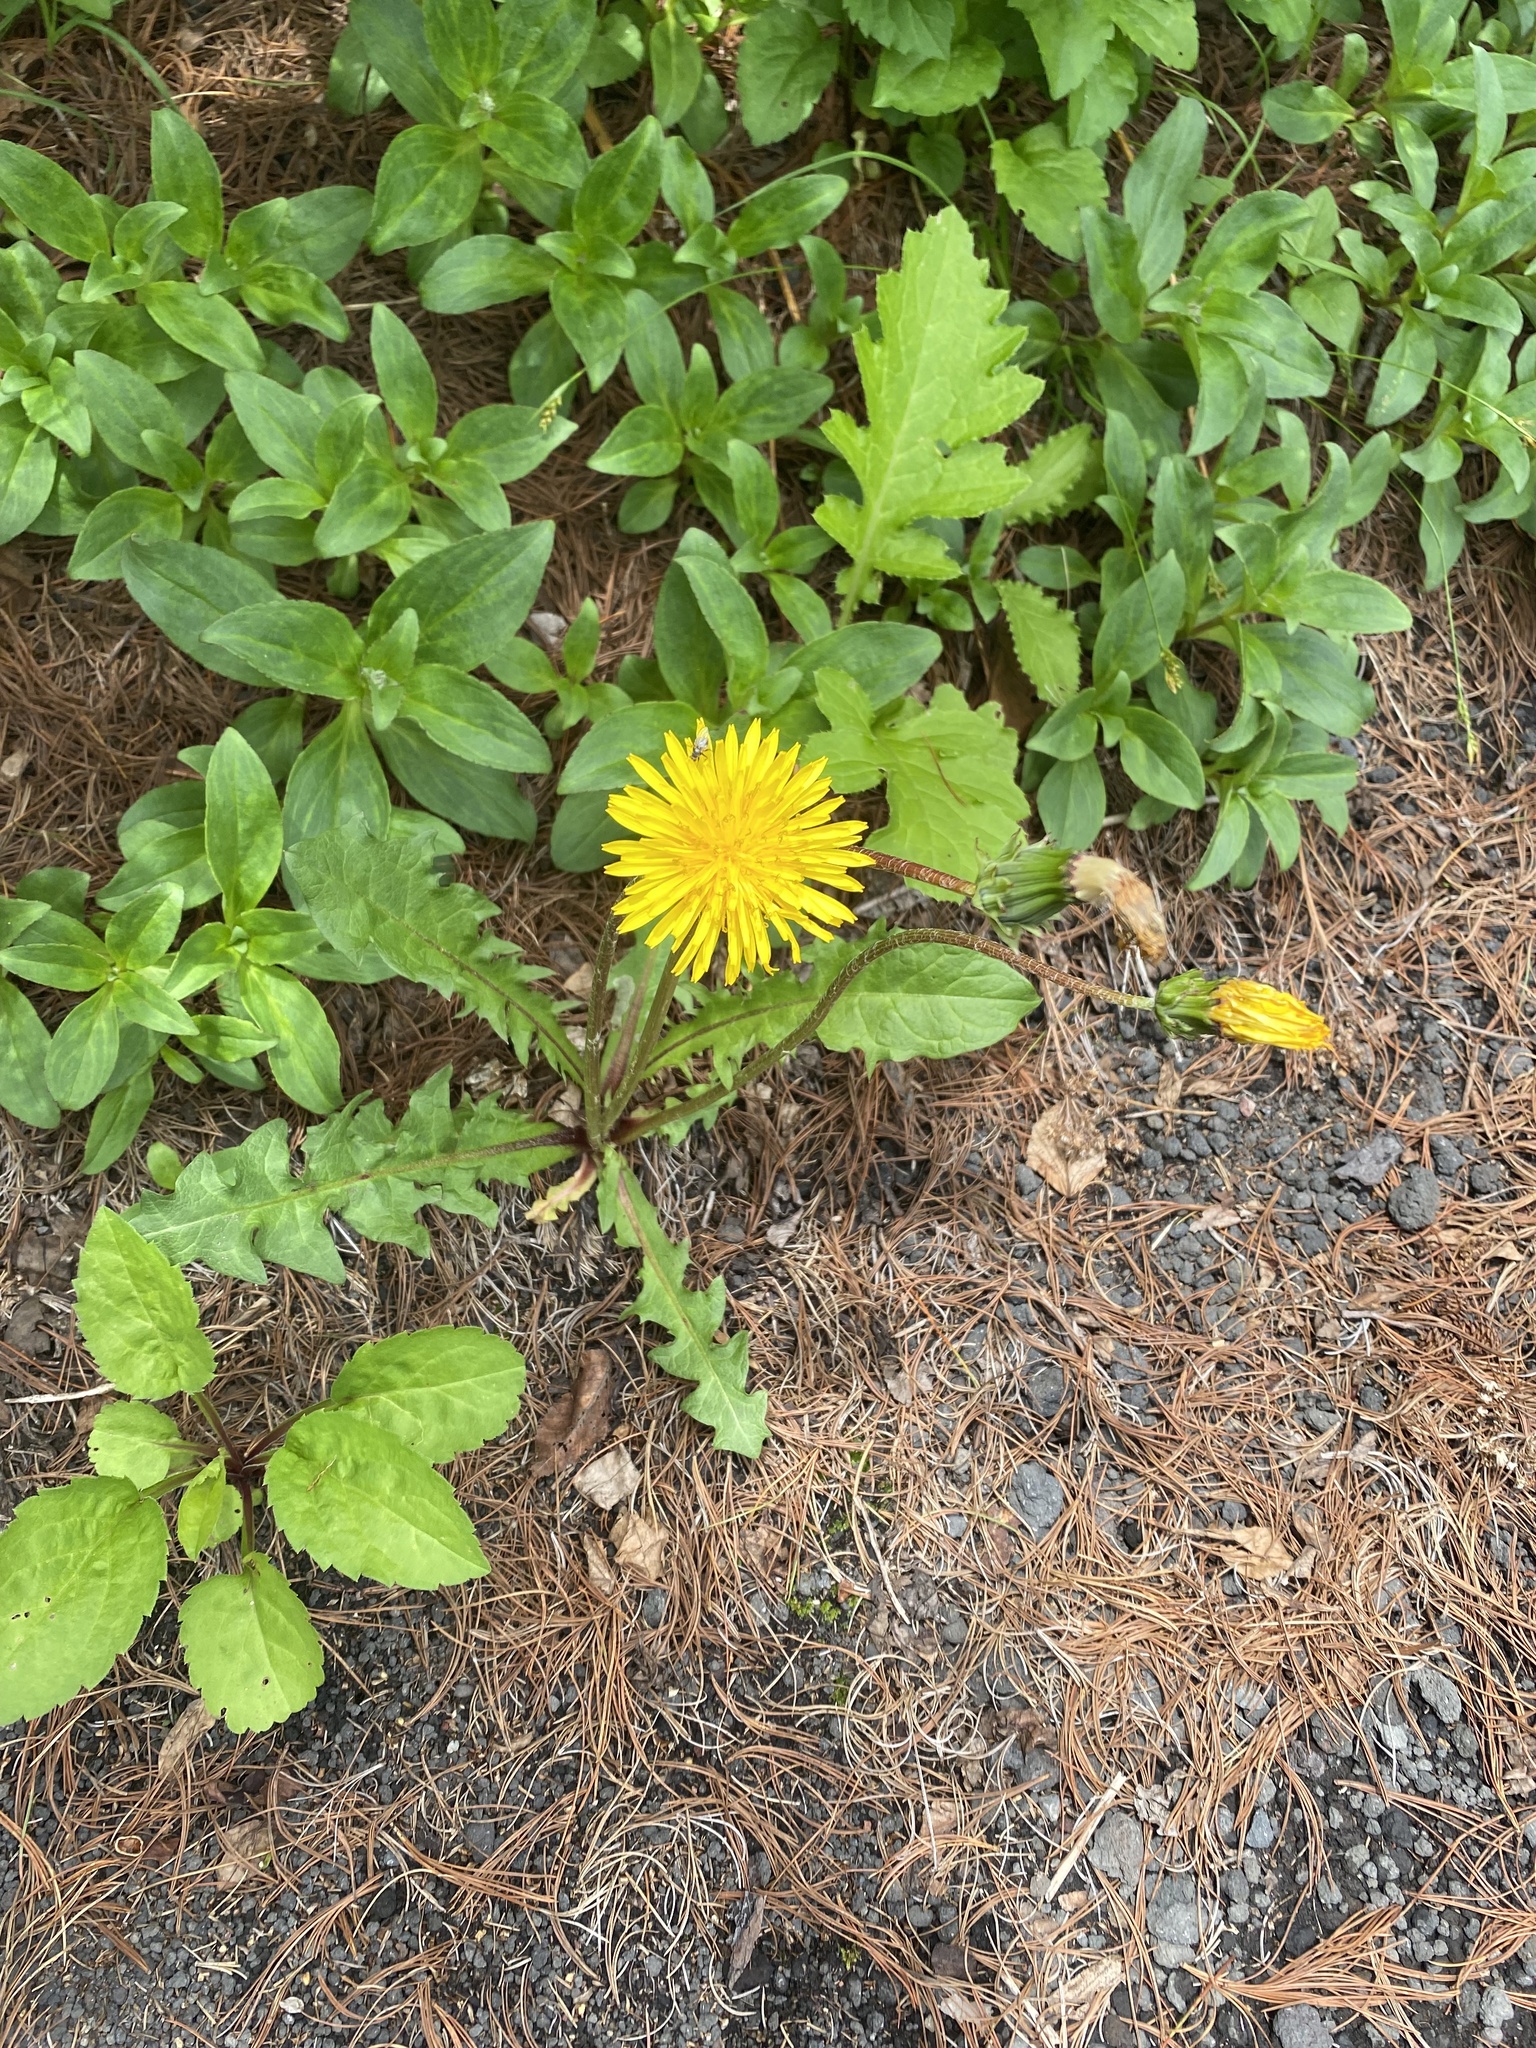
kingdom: Plantae
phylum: Tracheophyta
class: Magnoliopsida
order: Asterales
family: Asteraceae
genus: Taraxacum
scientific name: Taraxacum officinale
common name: Common dandelion
